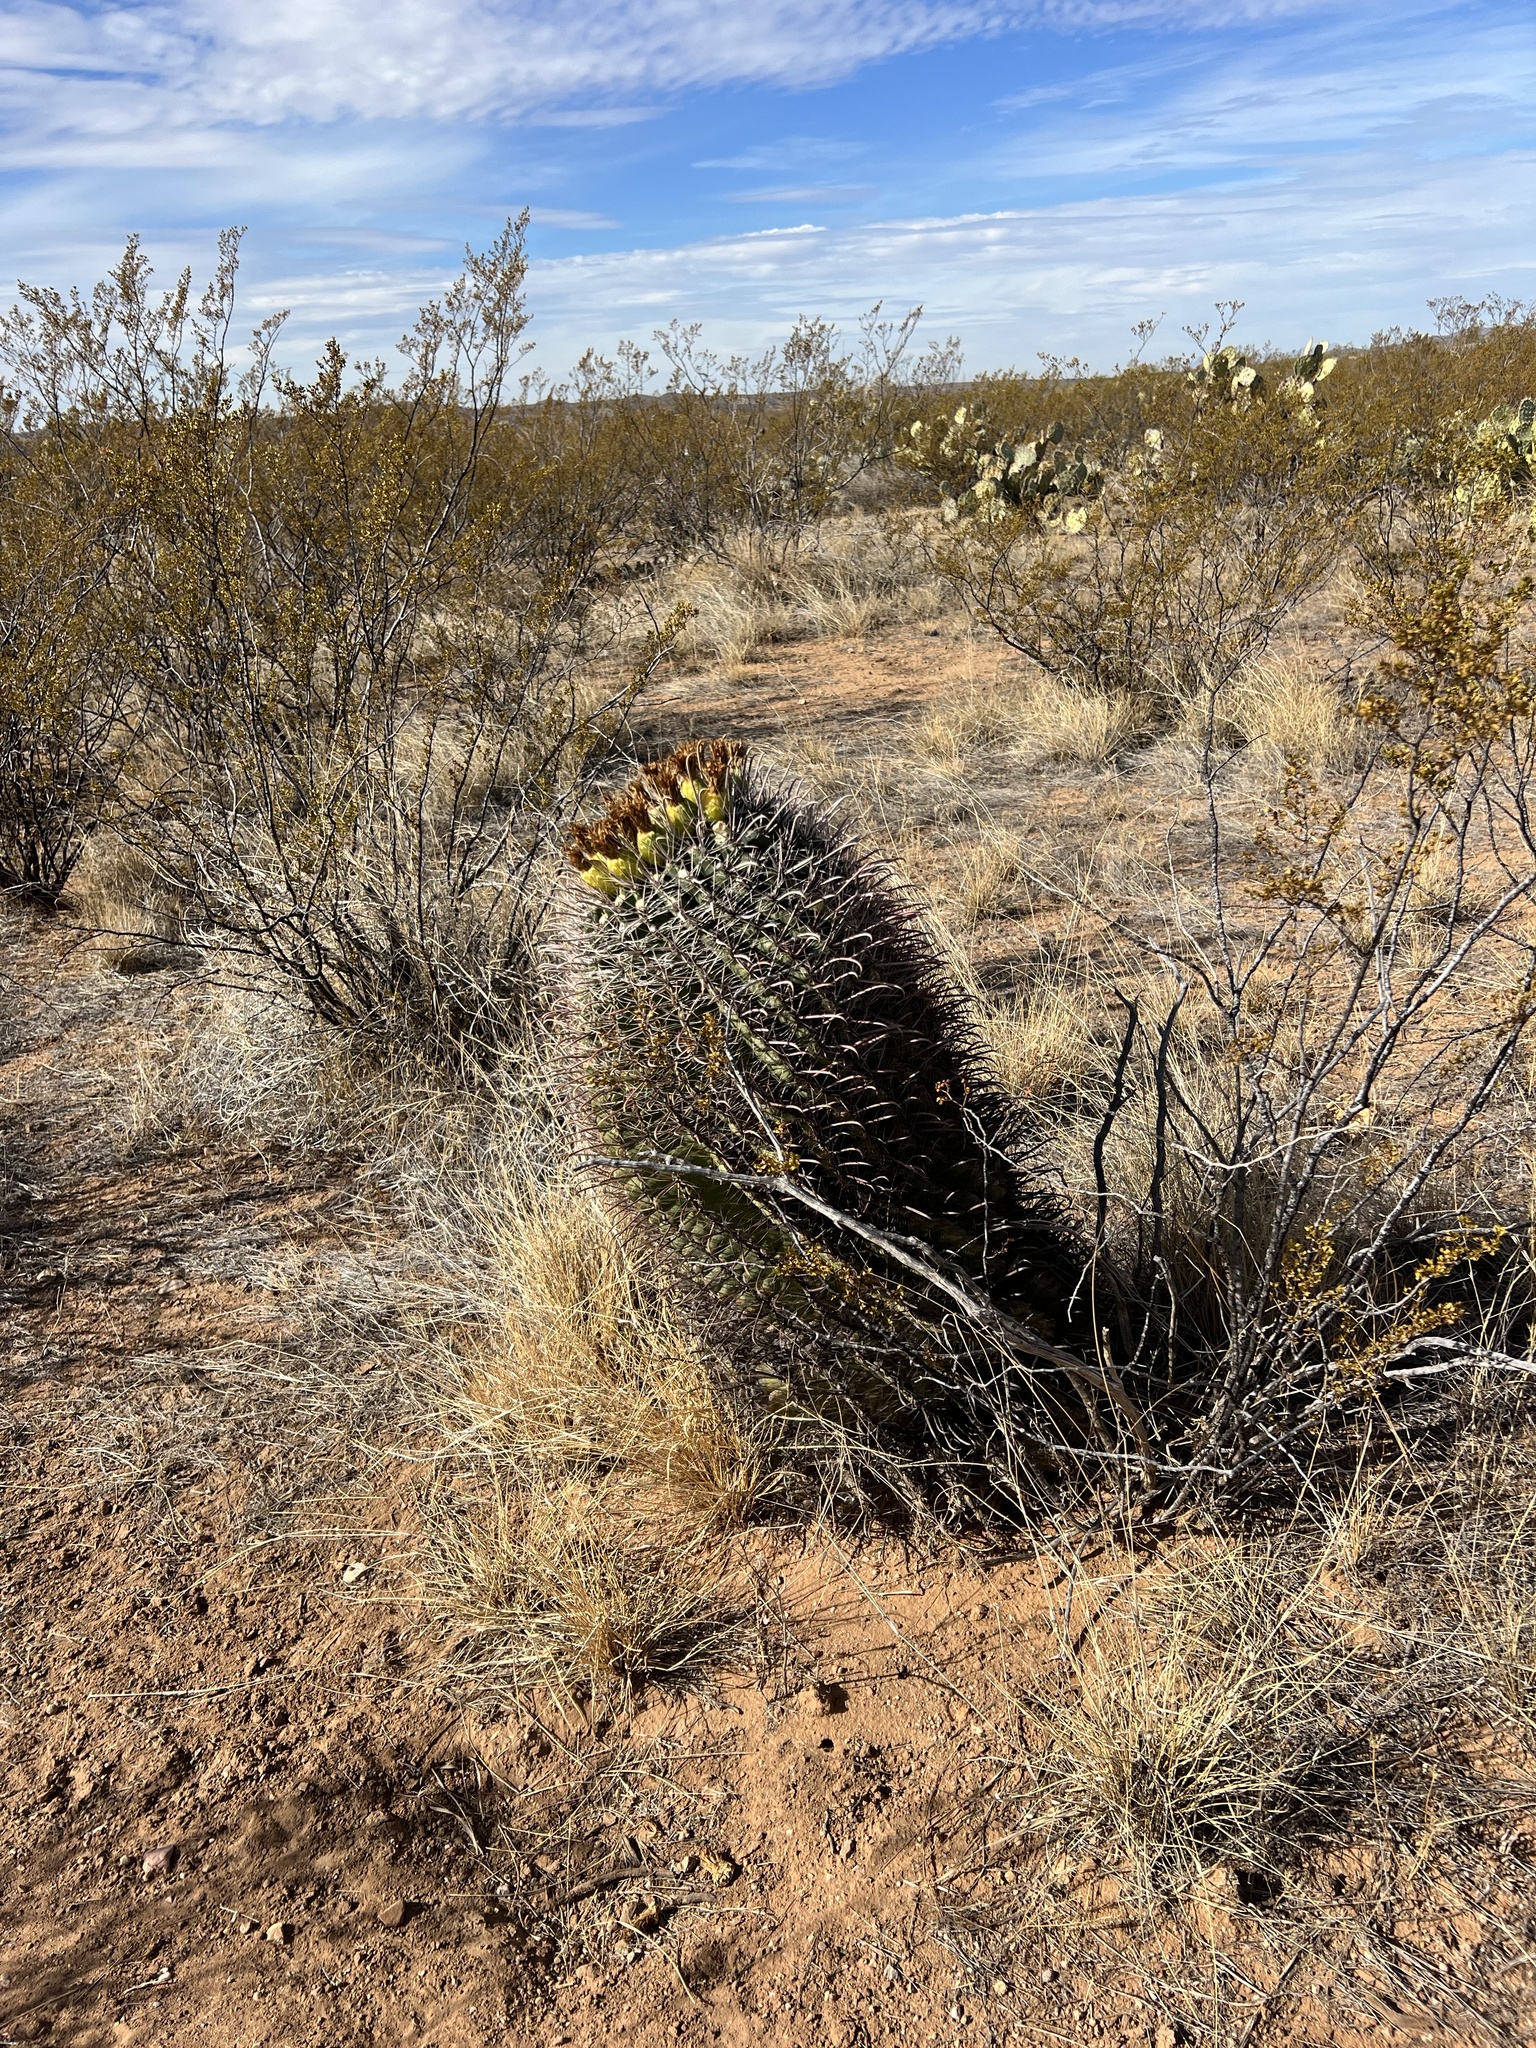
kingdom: Plantae
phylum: Tracheophyta
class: Magnoliopsida
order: Caryophyllales
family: Cactaceae
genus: Ferocactus
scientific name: Ferocactus wislizeni
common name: Candy barrel cactus
